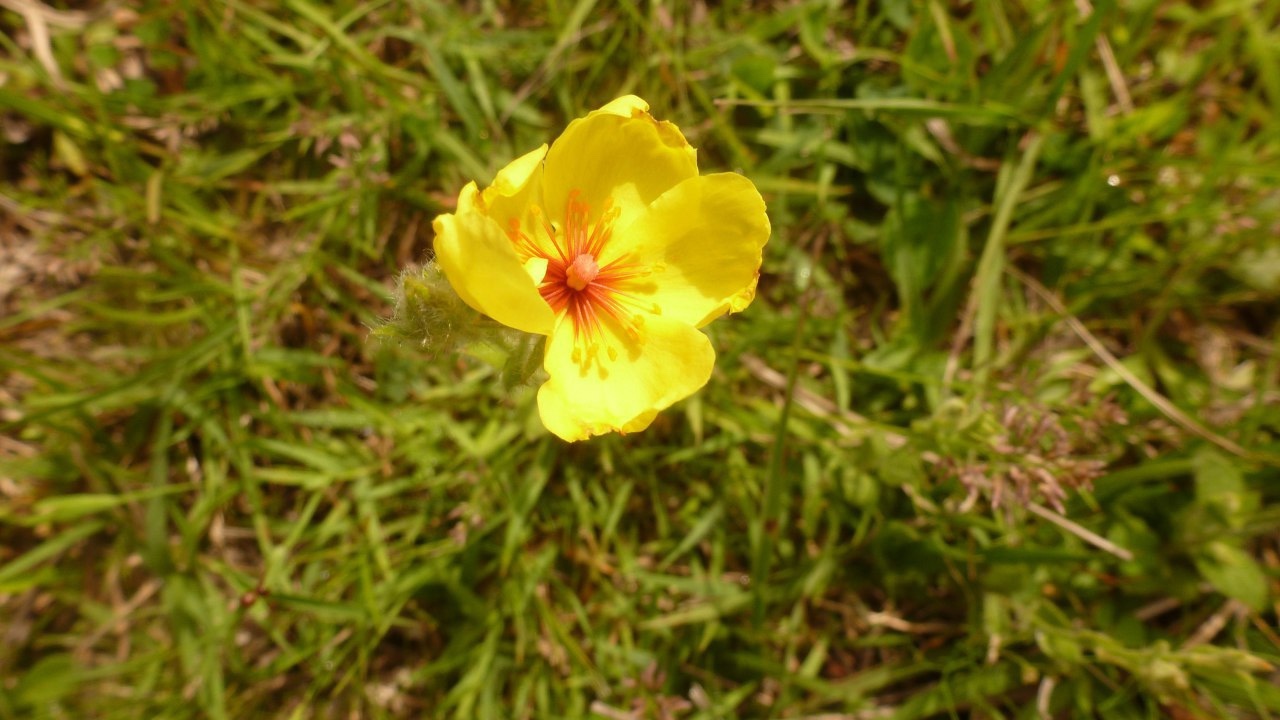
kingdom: Plantae
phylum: Tracheophyta
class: Magnoliopsida
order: Malvales
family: Cistaceae
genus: Crocanthemum
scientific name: Crocanthemum brasiliensis
